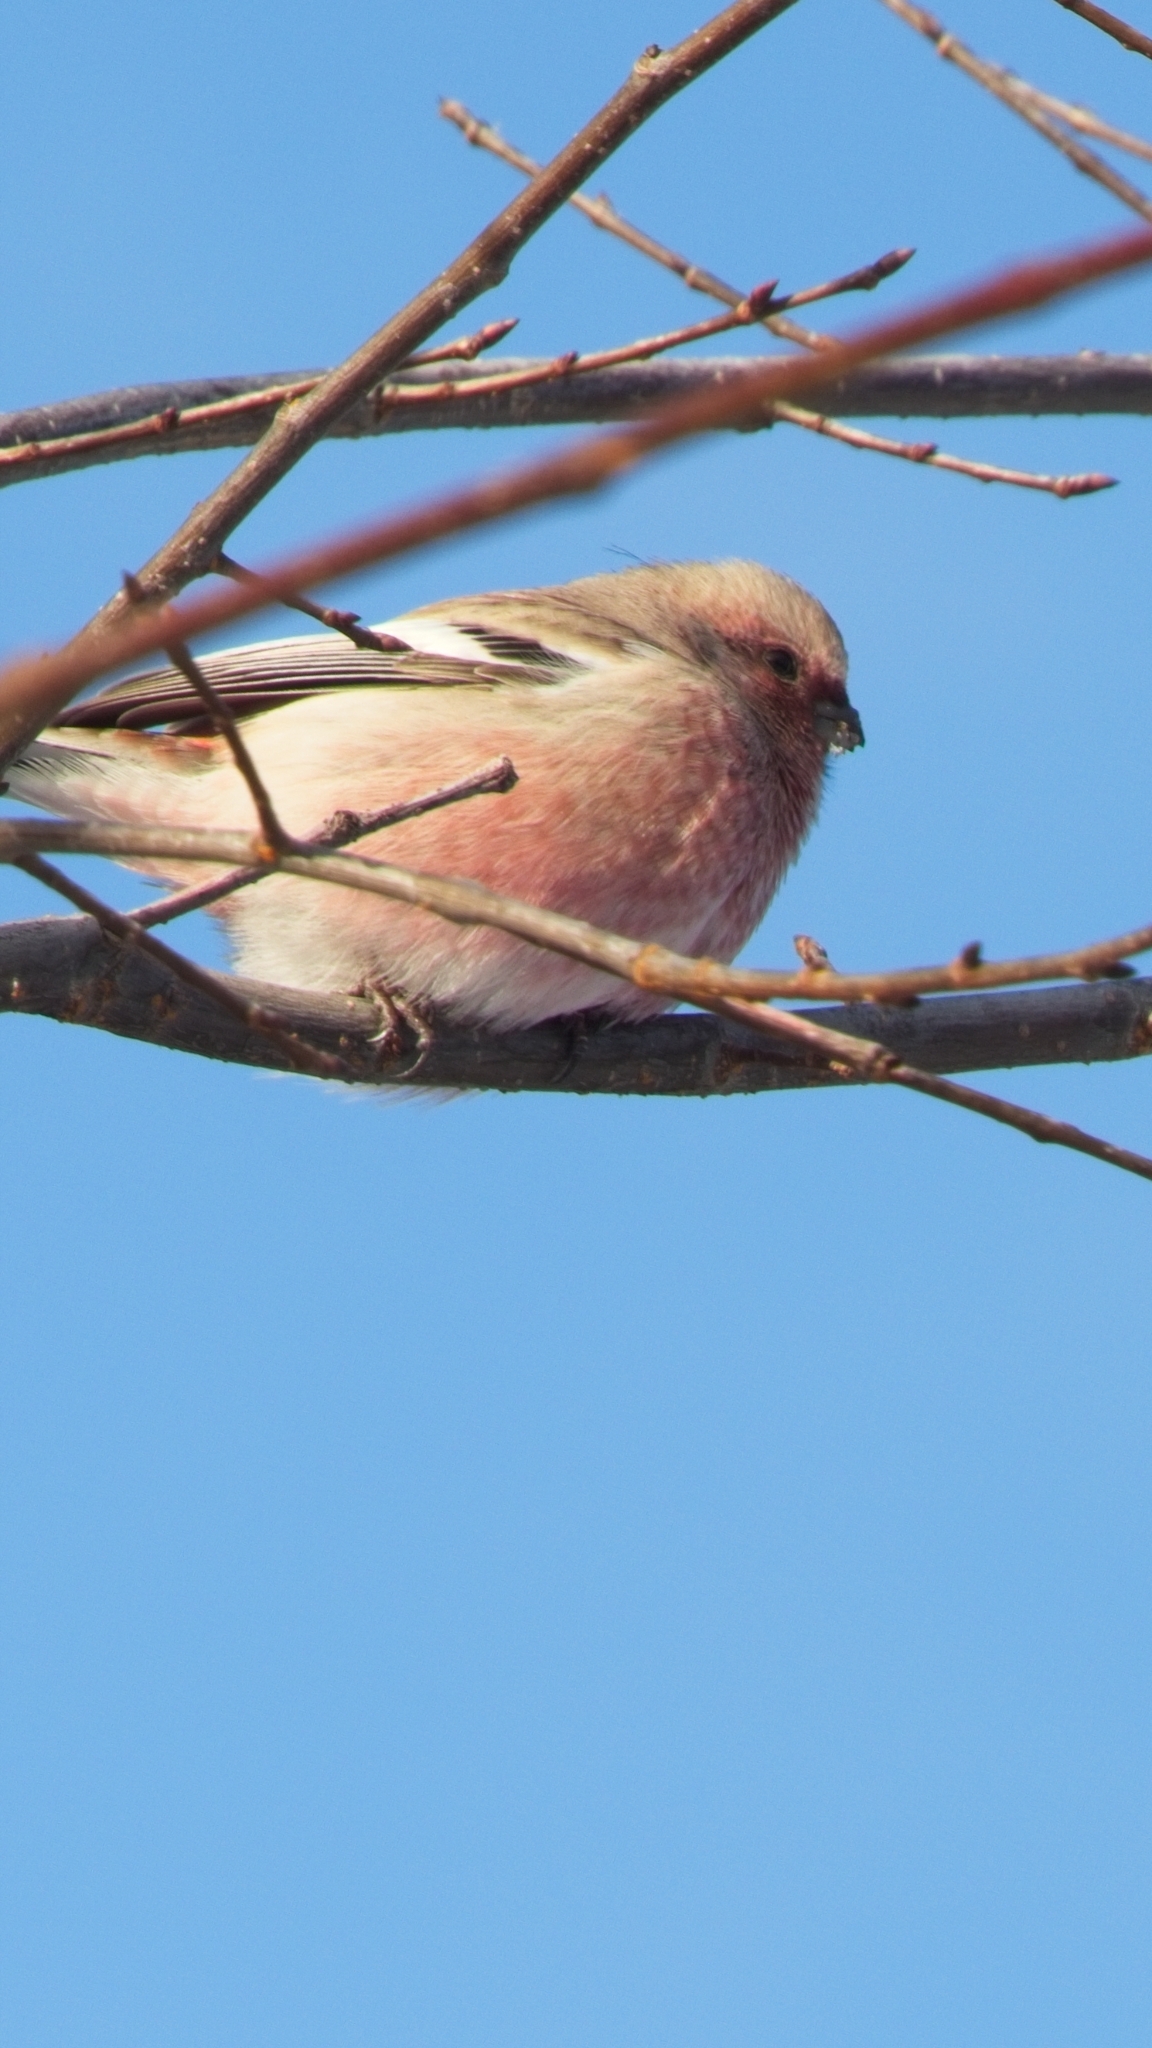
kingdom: Animalia
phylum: Chordata
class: Aves
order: Passeriformes
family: Fringillidae
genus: Carpodacus
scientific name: Carpodacus sibiricus
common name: Long-tailed rosefinch
